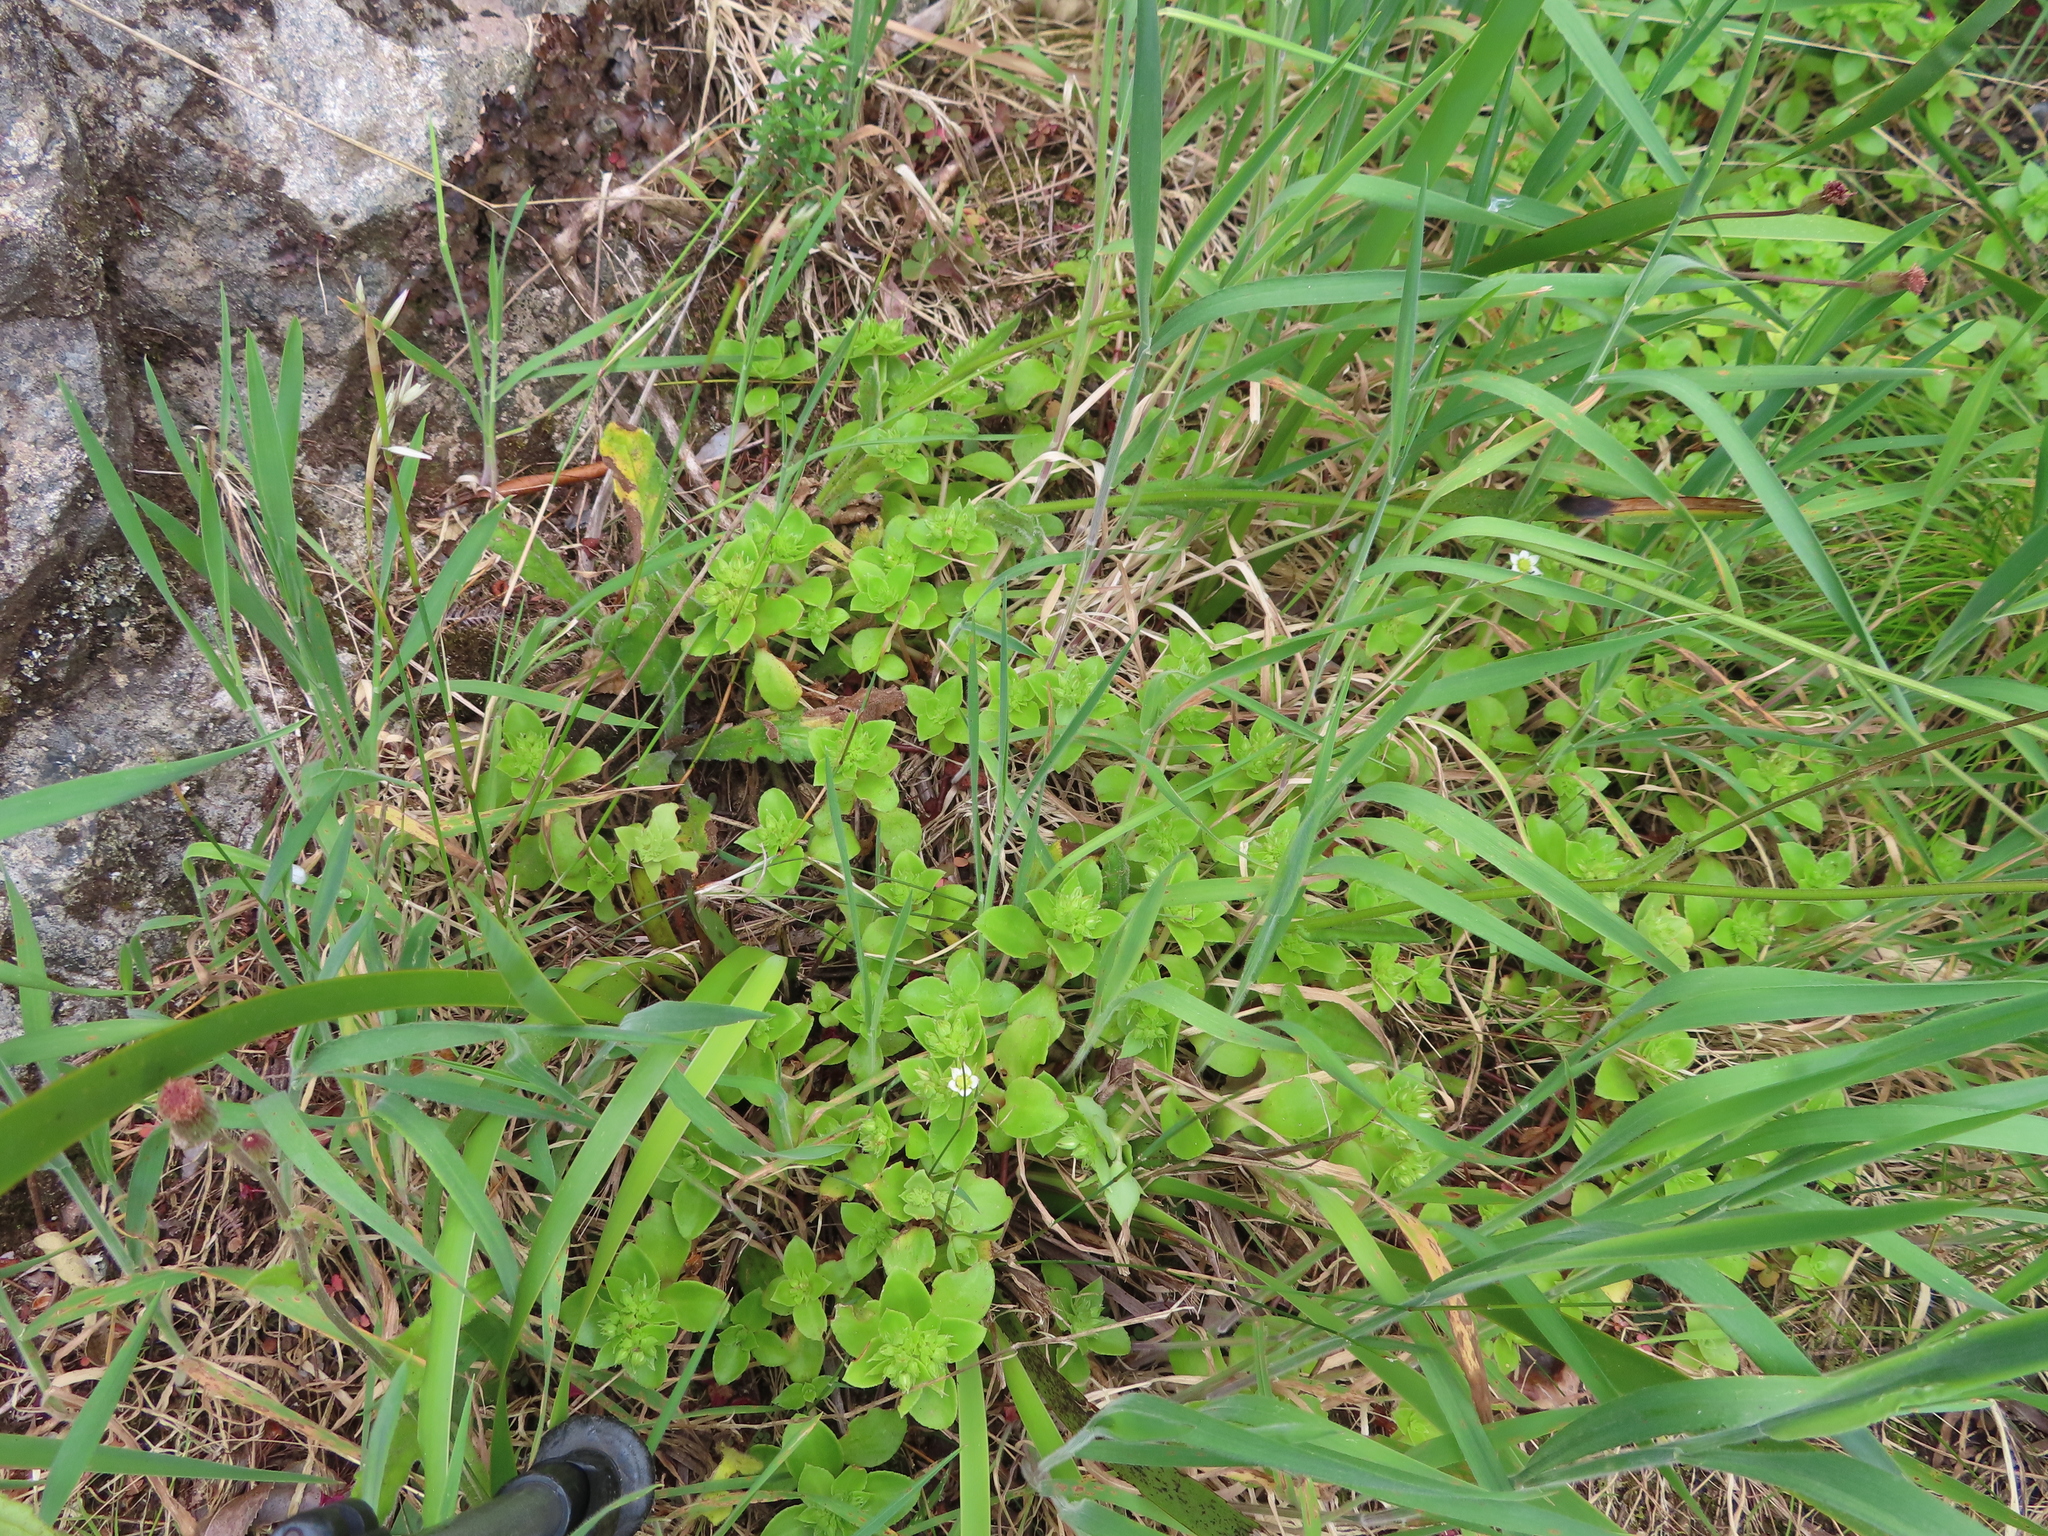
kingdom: Plantae
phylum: Tracheophyta
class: Magnoliopsida
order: Saxifragales
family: Crassulaceae
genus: Crassula
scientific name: Crassula pellucida
